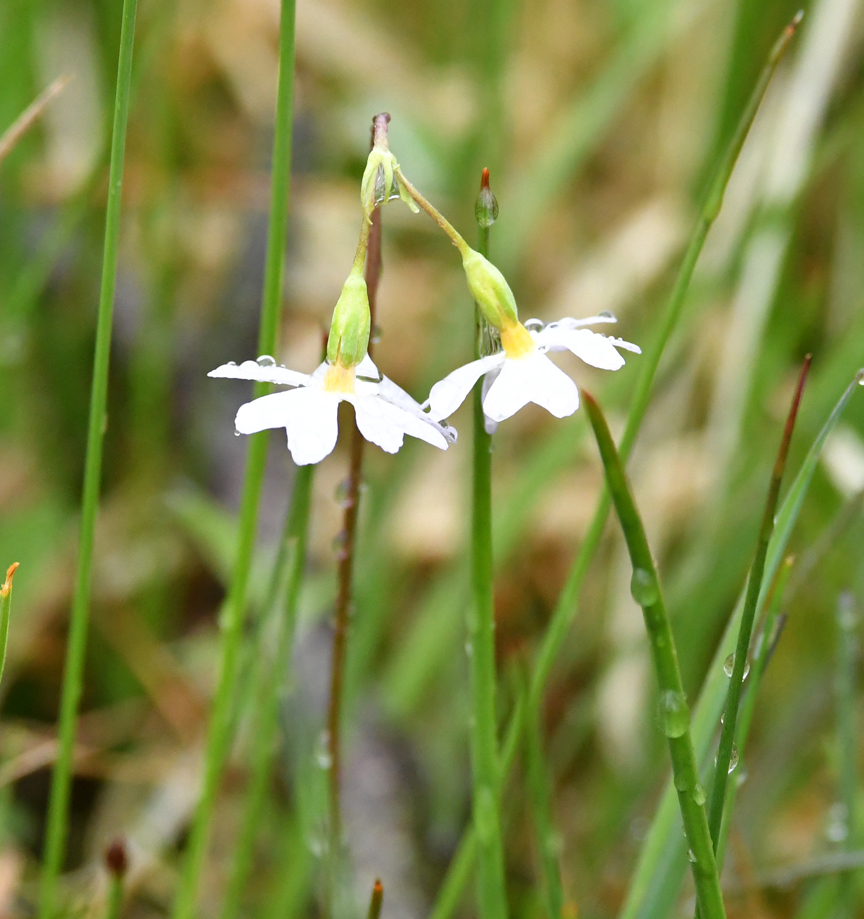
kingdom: Plantae
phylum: Tracheophyta
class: Magnoliopsida
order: Ericales
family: Primulaceae
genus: Primula
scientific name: Primula mistassinica
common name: Bird's-eye primrose
